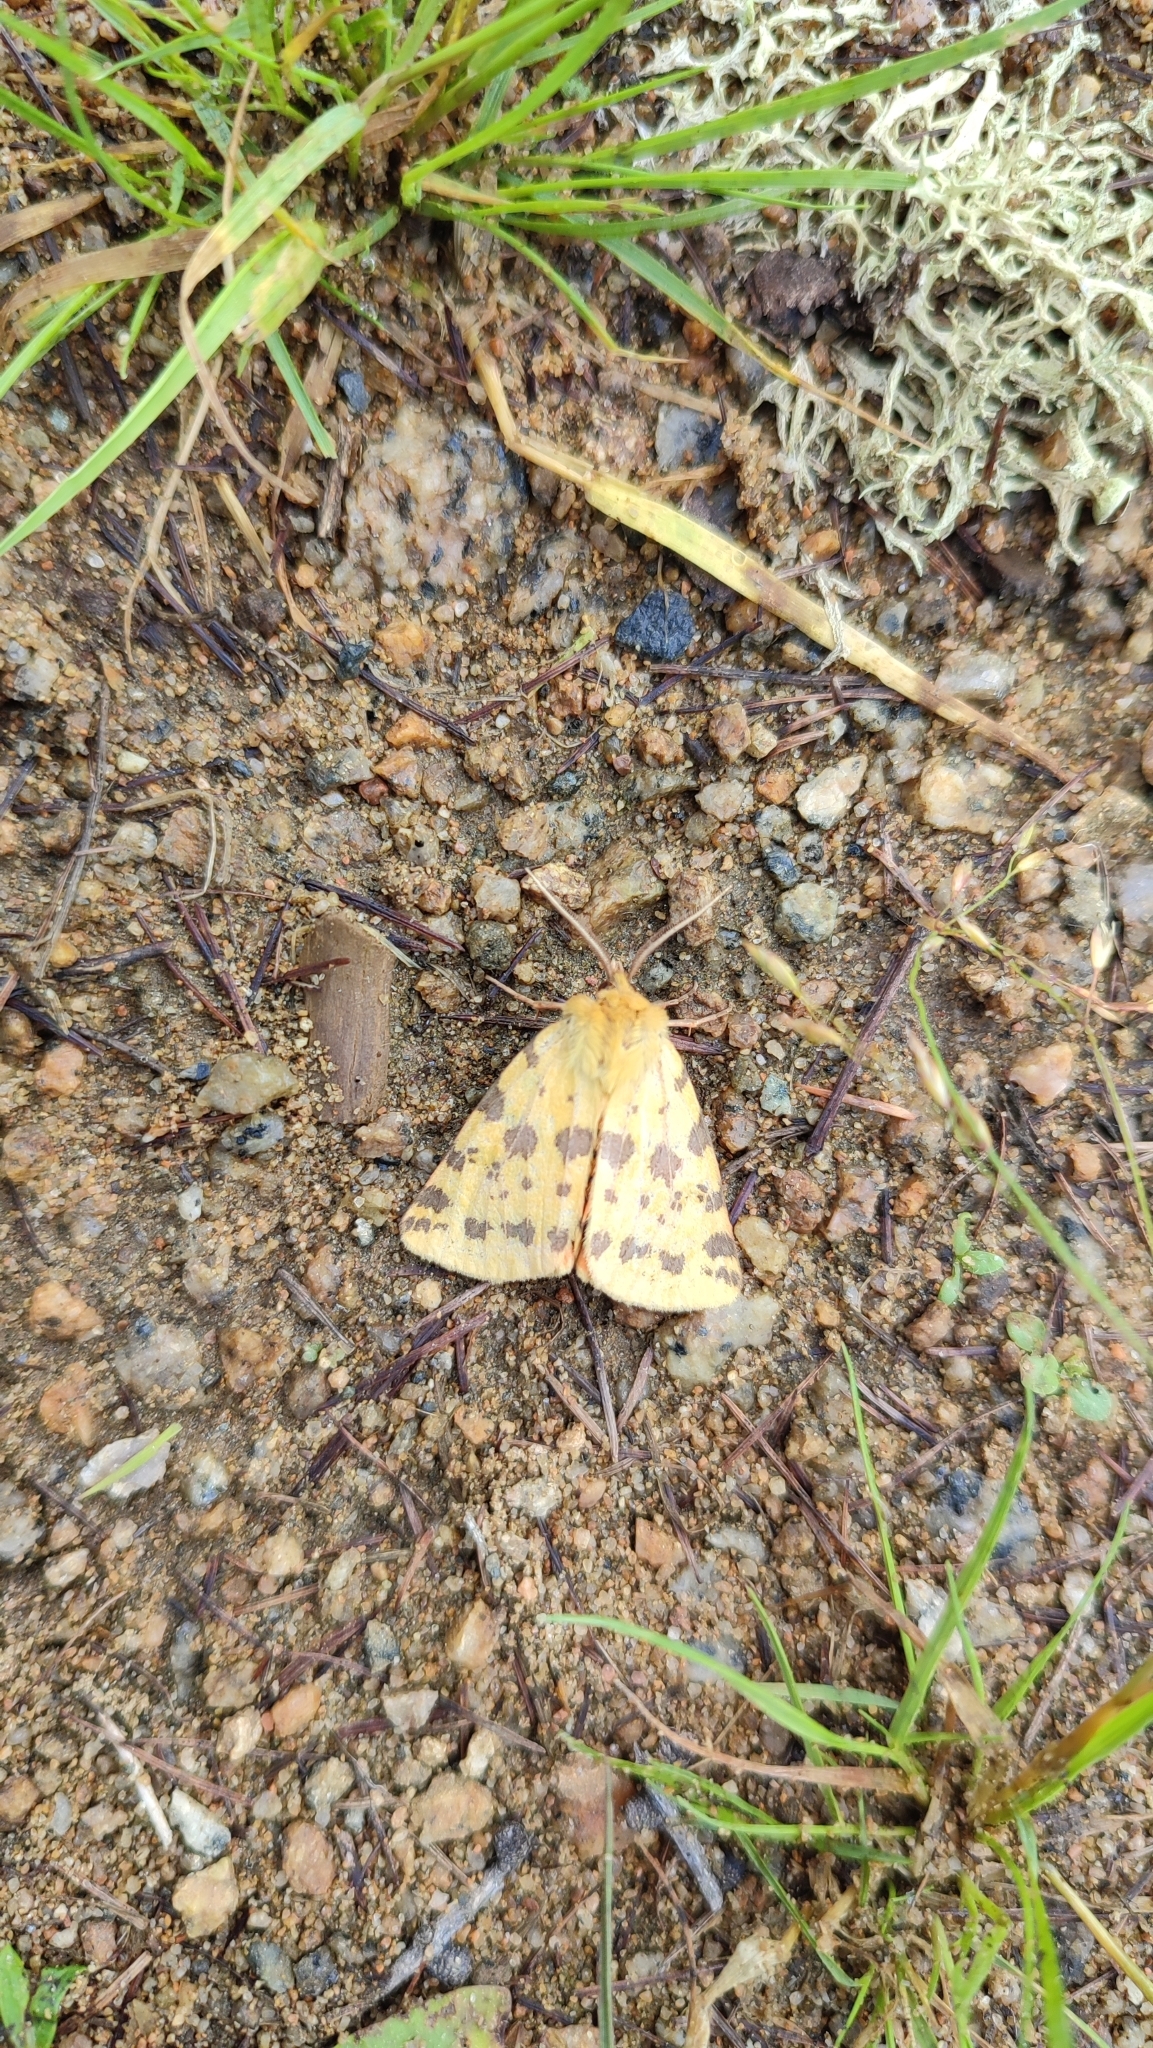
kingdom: Animalia
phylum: Arthropoda
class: Insecta
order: Lepidoptera
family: Erebidae
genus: Rhyparia
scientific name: Rhyparia purpurata
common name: Purple tiger
